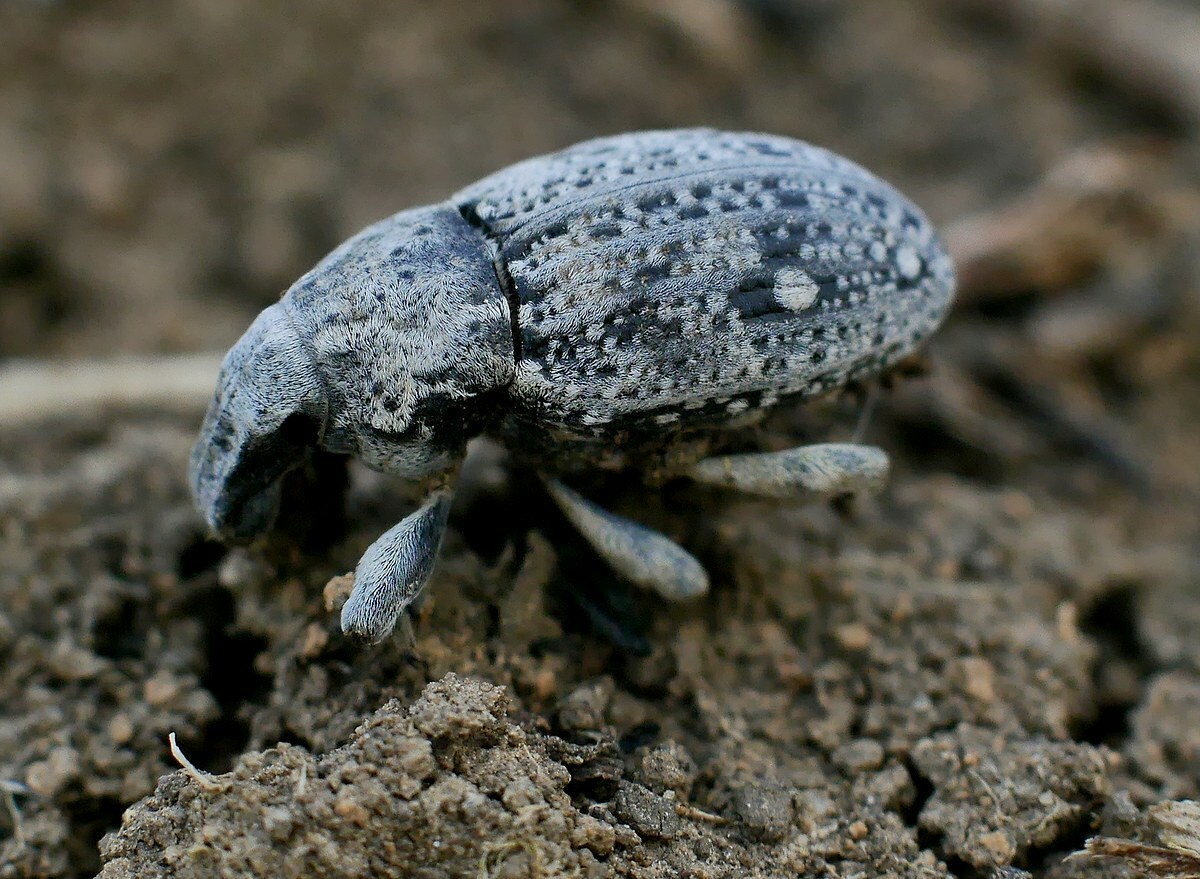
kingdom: Animalia
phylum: Arthropoda
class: Insecta
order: Coleoptera
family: Curculionidae
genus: Leucophyes
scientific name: Leucophyes pedestris
